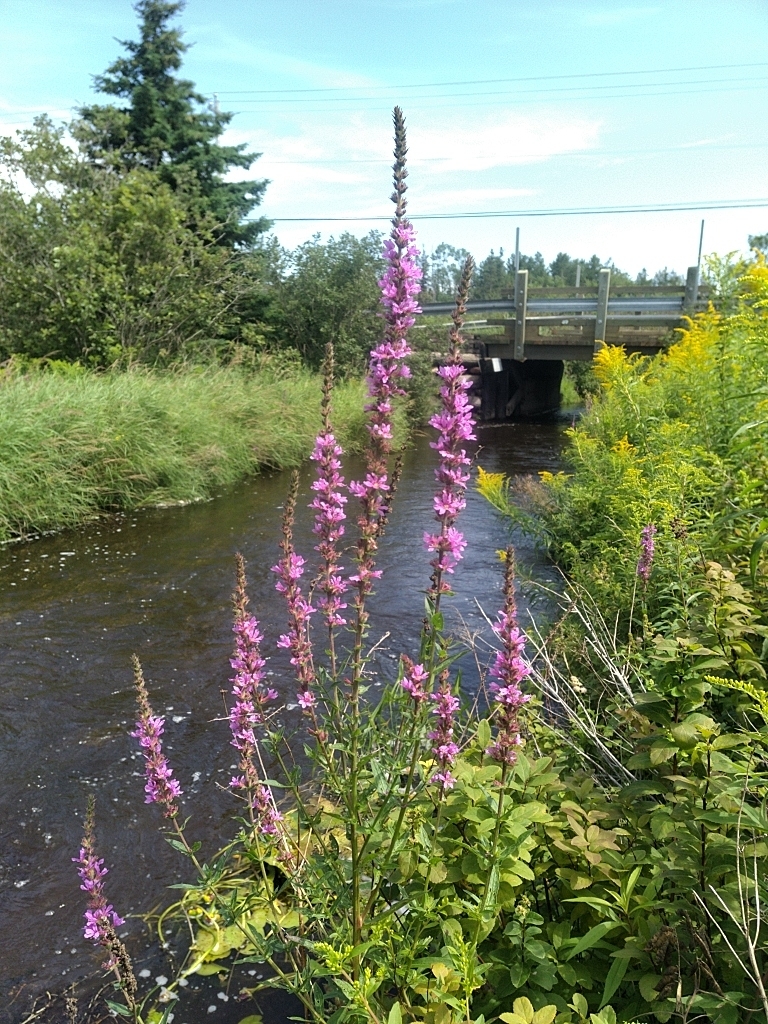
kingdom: Plantae
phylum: Tracheophyta
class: Magnoliopsida
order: Myrtales
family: Lythraceae
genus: Lythrum
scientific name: Lythrum salicaria
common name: Purple loosestrife
